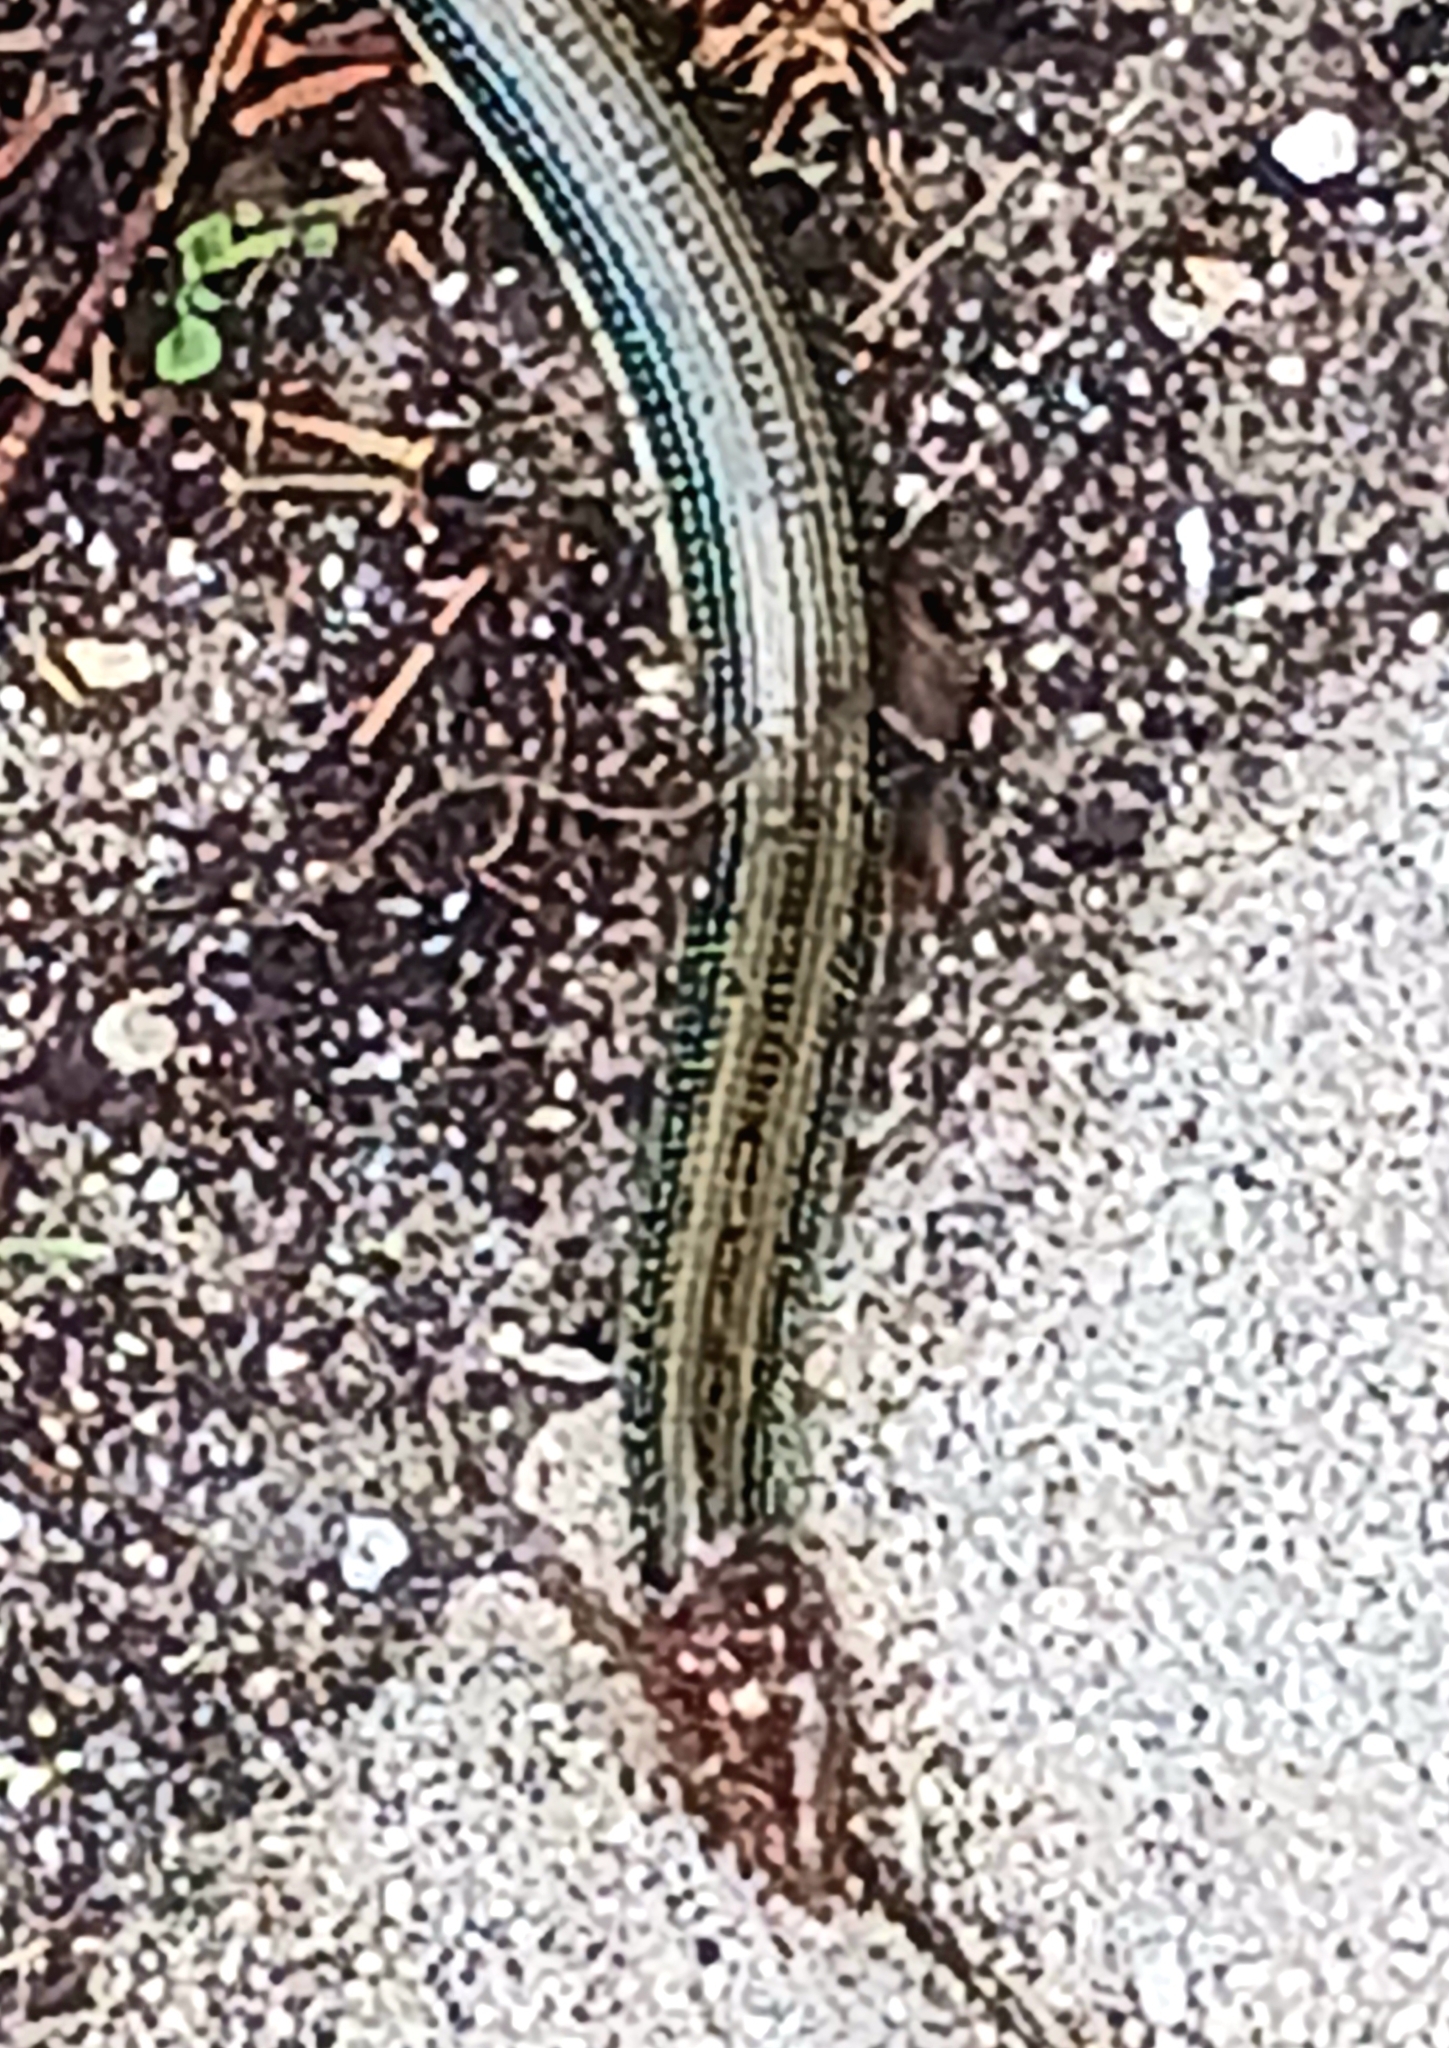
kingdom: Animalia
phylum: Chordata
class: Squamata
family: Anguidae
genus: Ophisaurus
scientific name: Ophisaurus ventralis
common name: Eastern glass lizard
